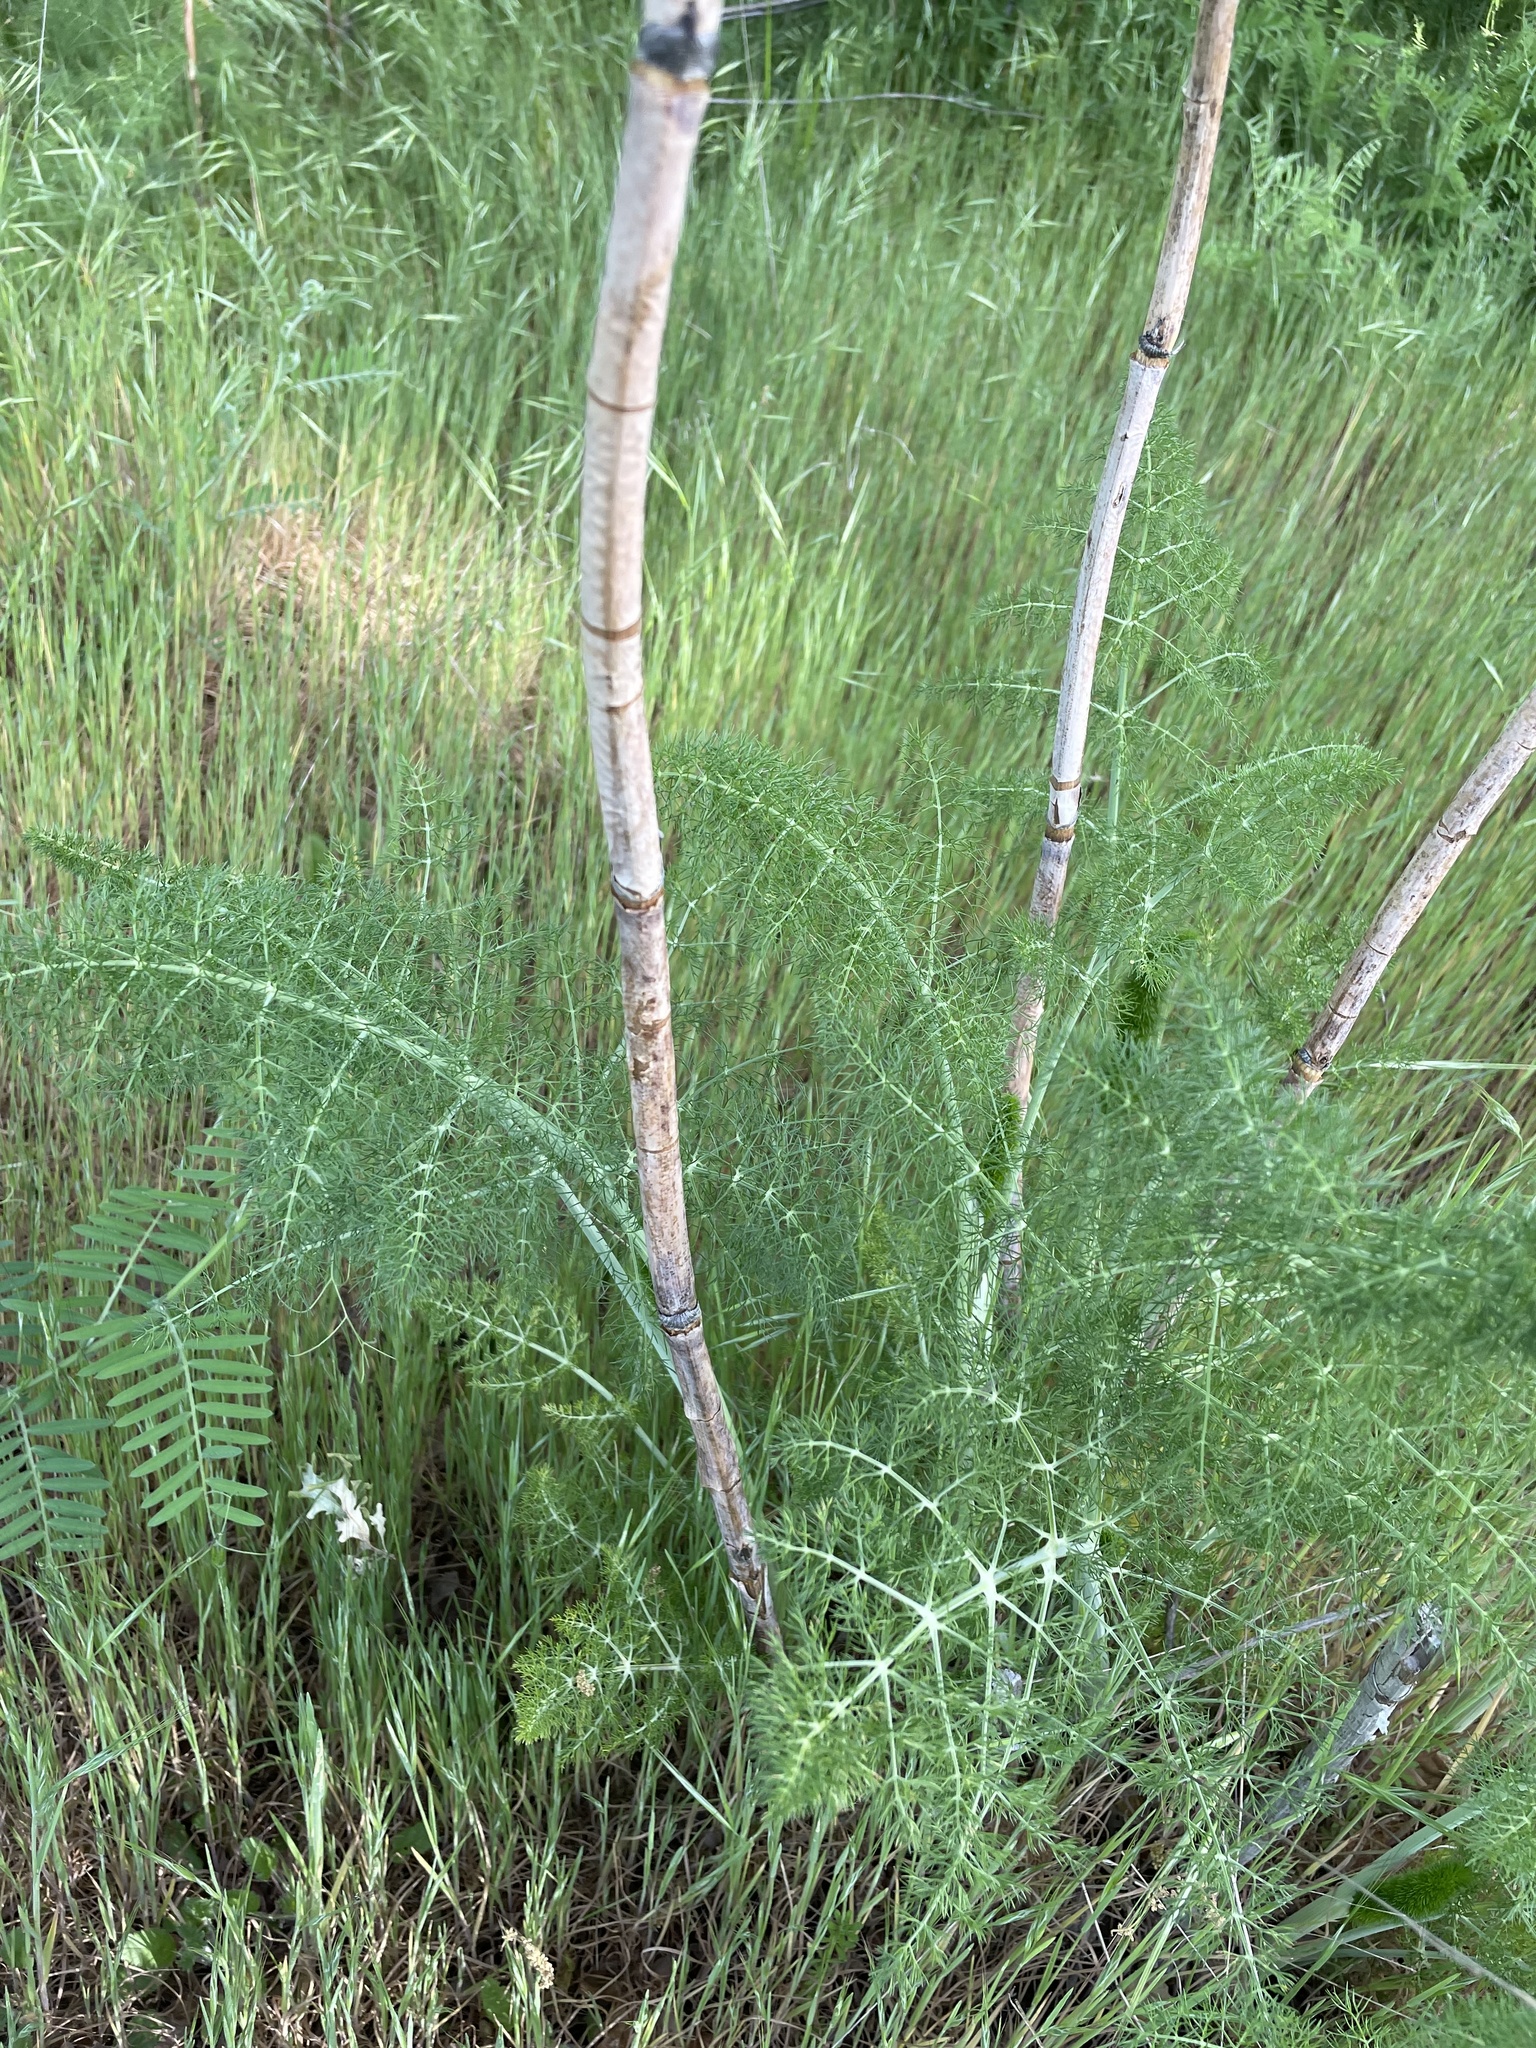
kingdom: Plantae
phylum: Tracheophyta
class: Magnoliopsida
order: Apiales
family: Apiaceae
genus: Foeniculum
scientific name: Foeniculum vulgare
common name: Fennel
